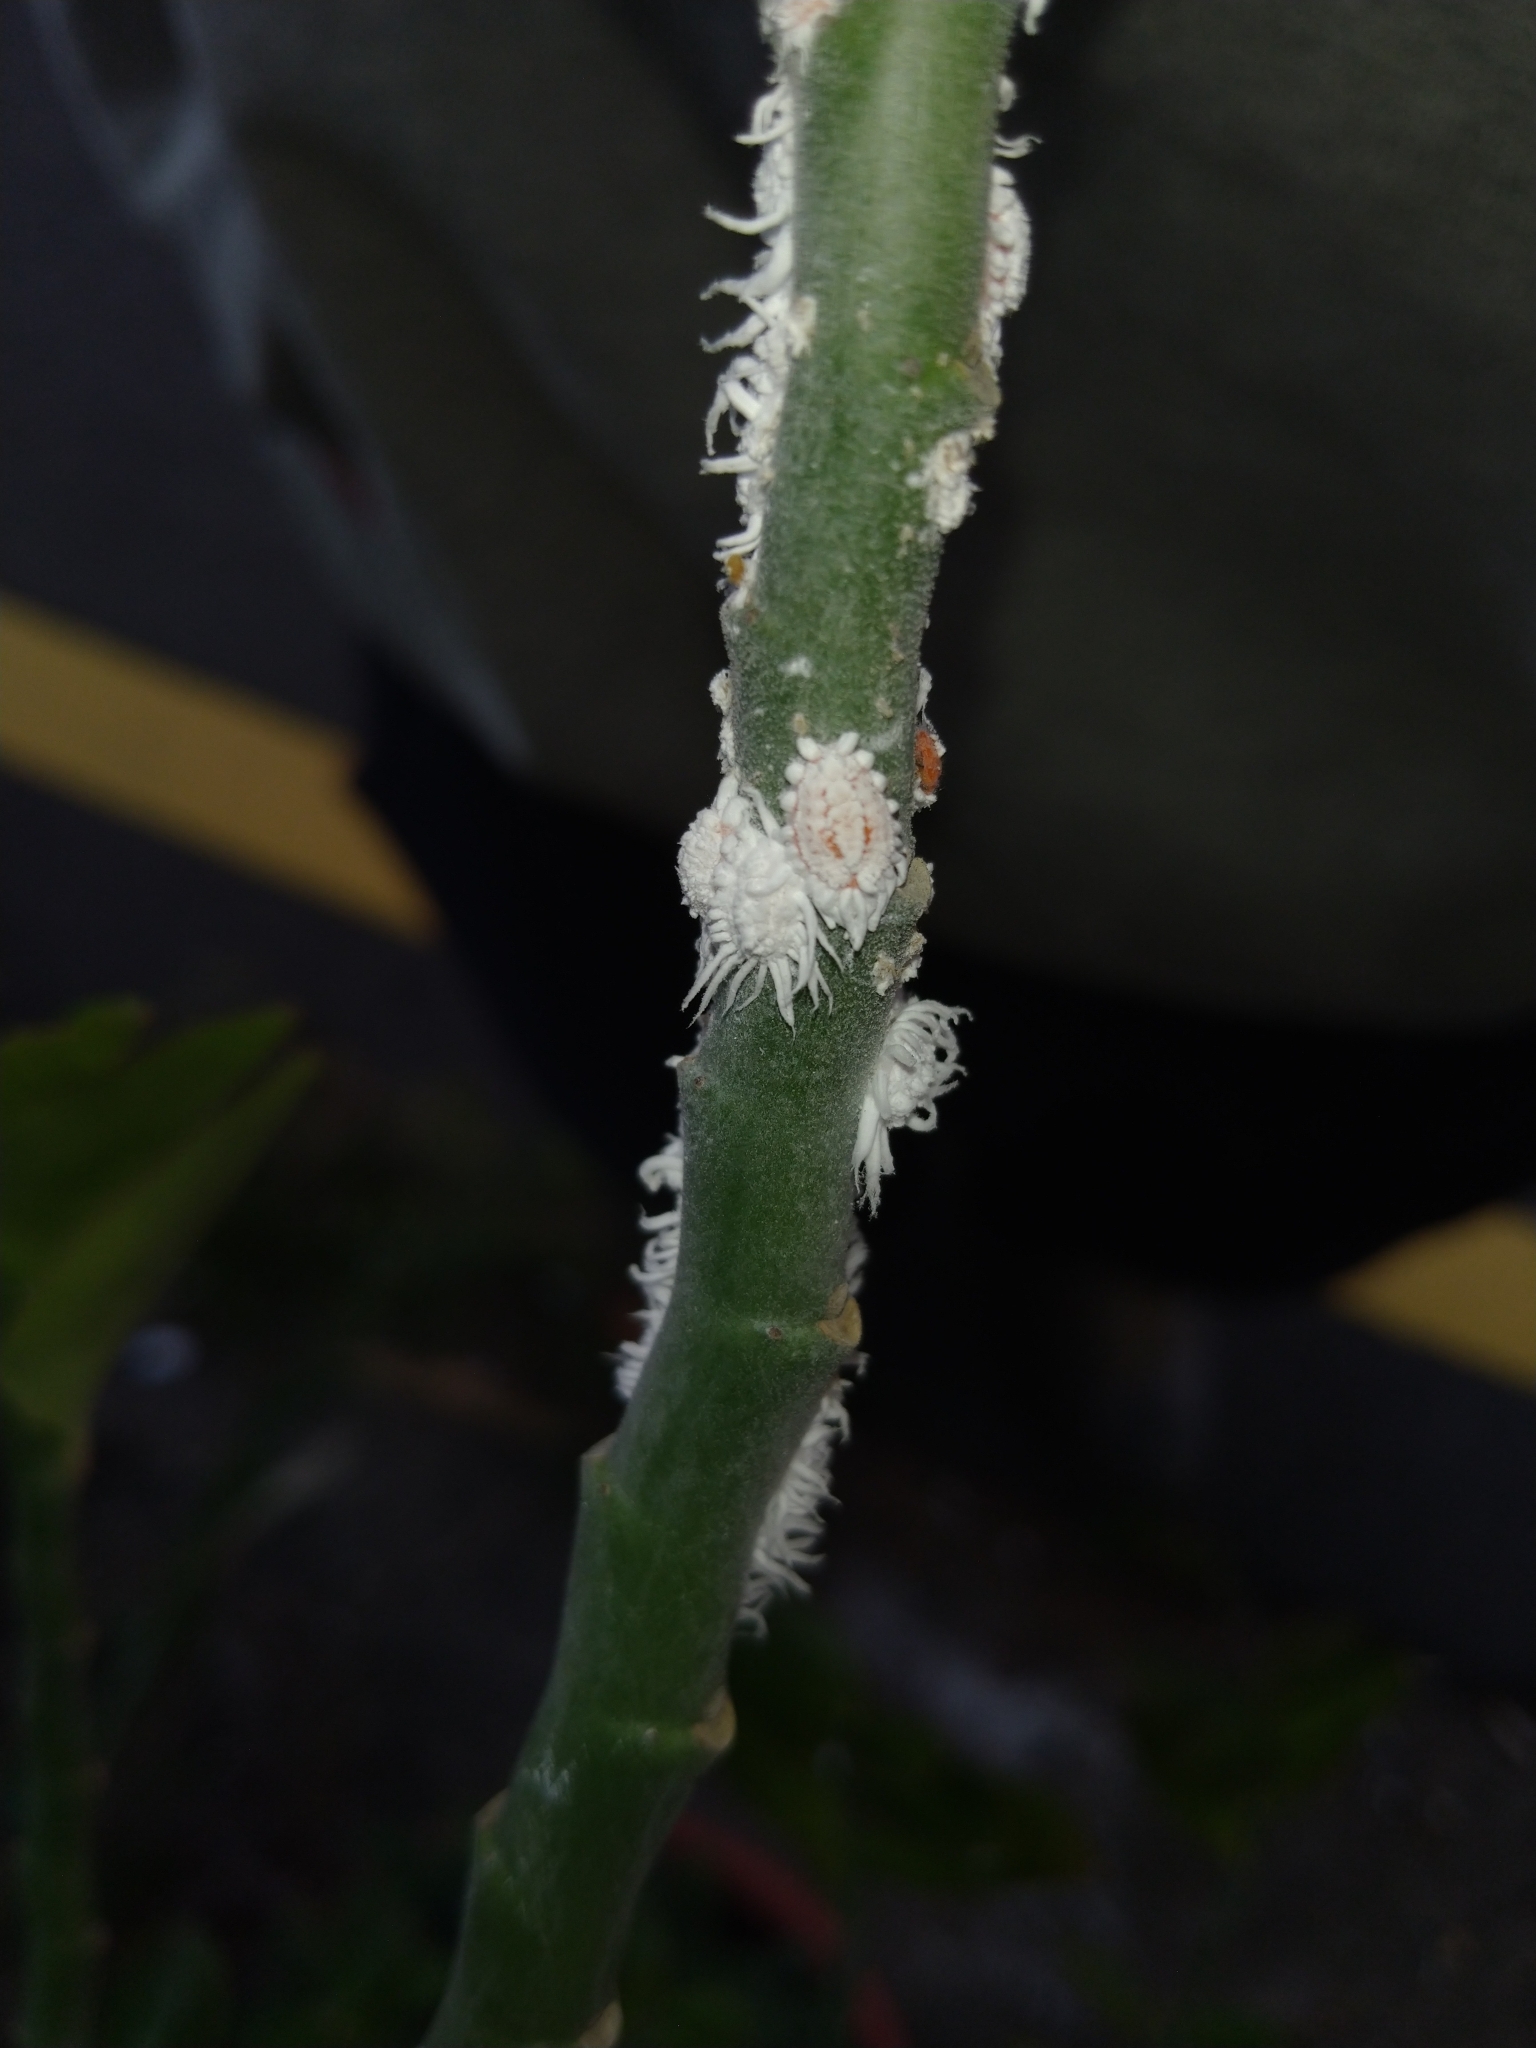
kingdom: Animalia
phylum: Arthropoda
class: Insecta
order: Hemiptera
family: Margarodidae
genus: Icerya
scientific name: Icerya aegyptiaca
